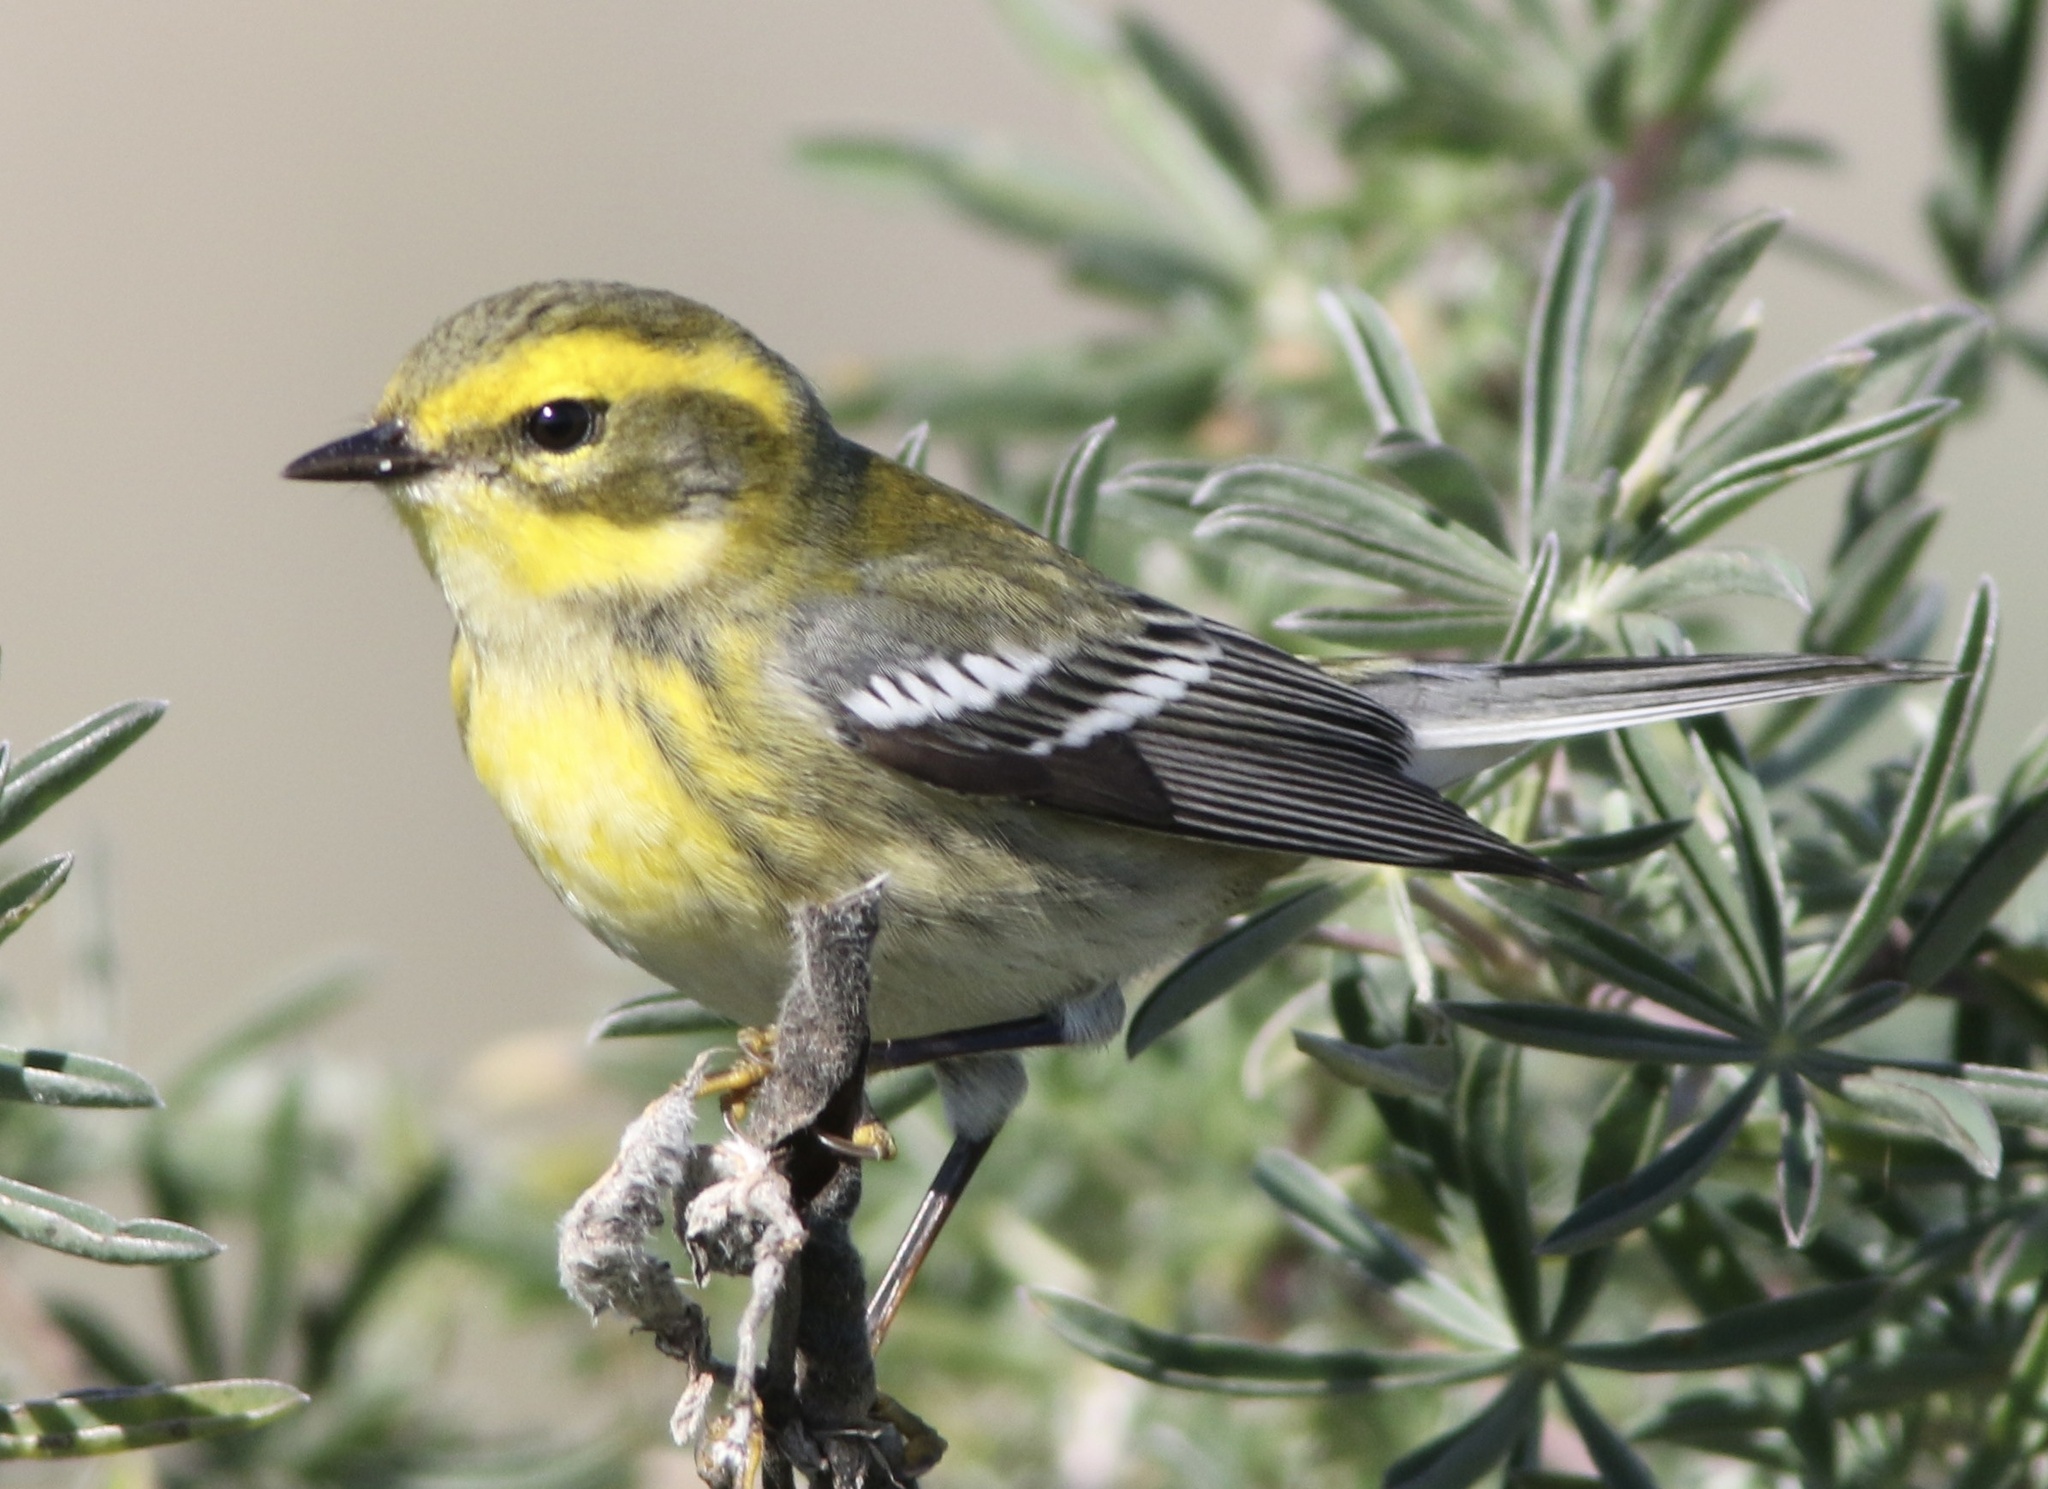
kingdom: Animalia
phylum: Chordata
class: Aves
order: Passeriformes
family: Parulidae
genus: Setophaga
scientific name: Setophaga townsendi
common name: Townsend's warbler
